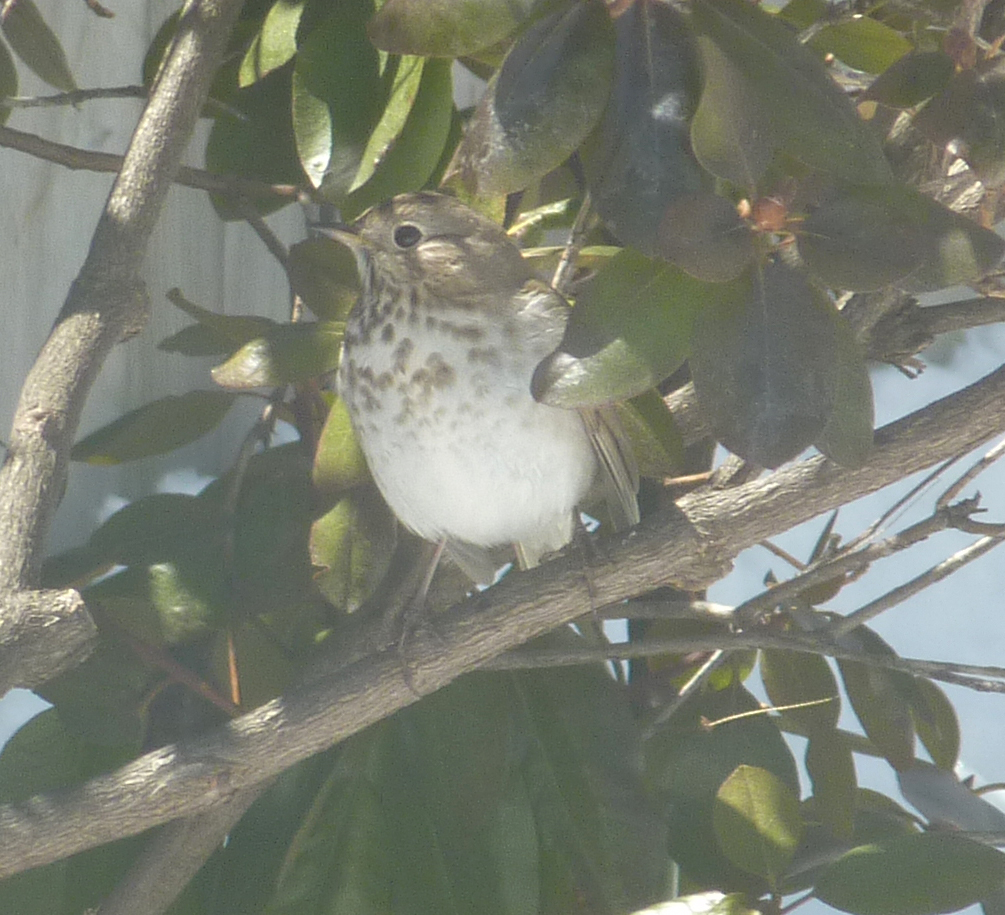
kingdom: Animalia
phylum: Chordata
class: Aves
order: Passeriformes
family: Turdidae
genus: Catharus
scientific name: Catharus guttatus
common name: Hermit thrush
